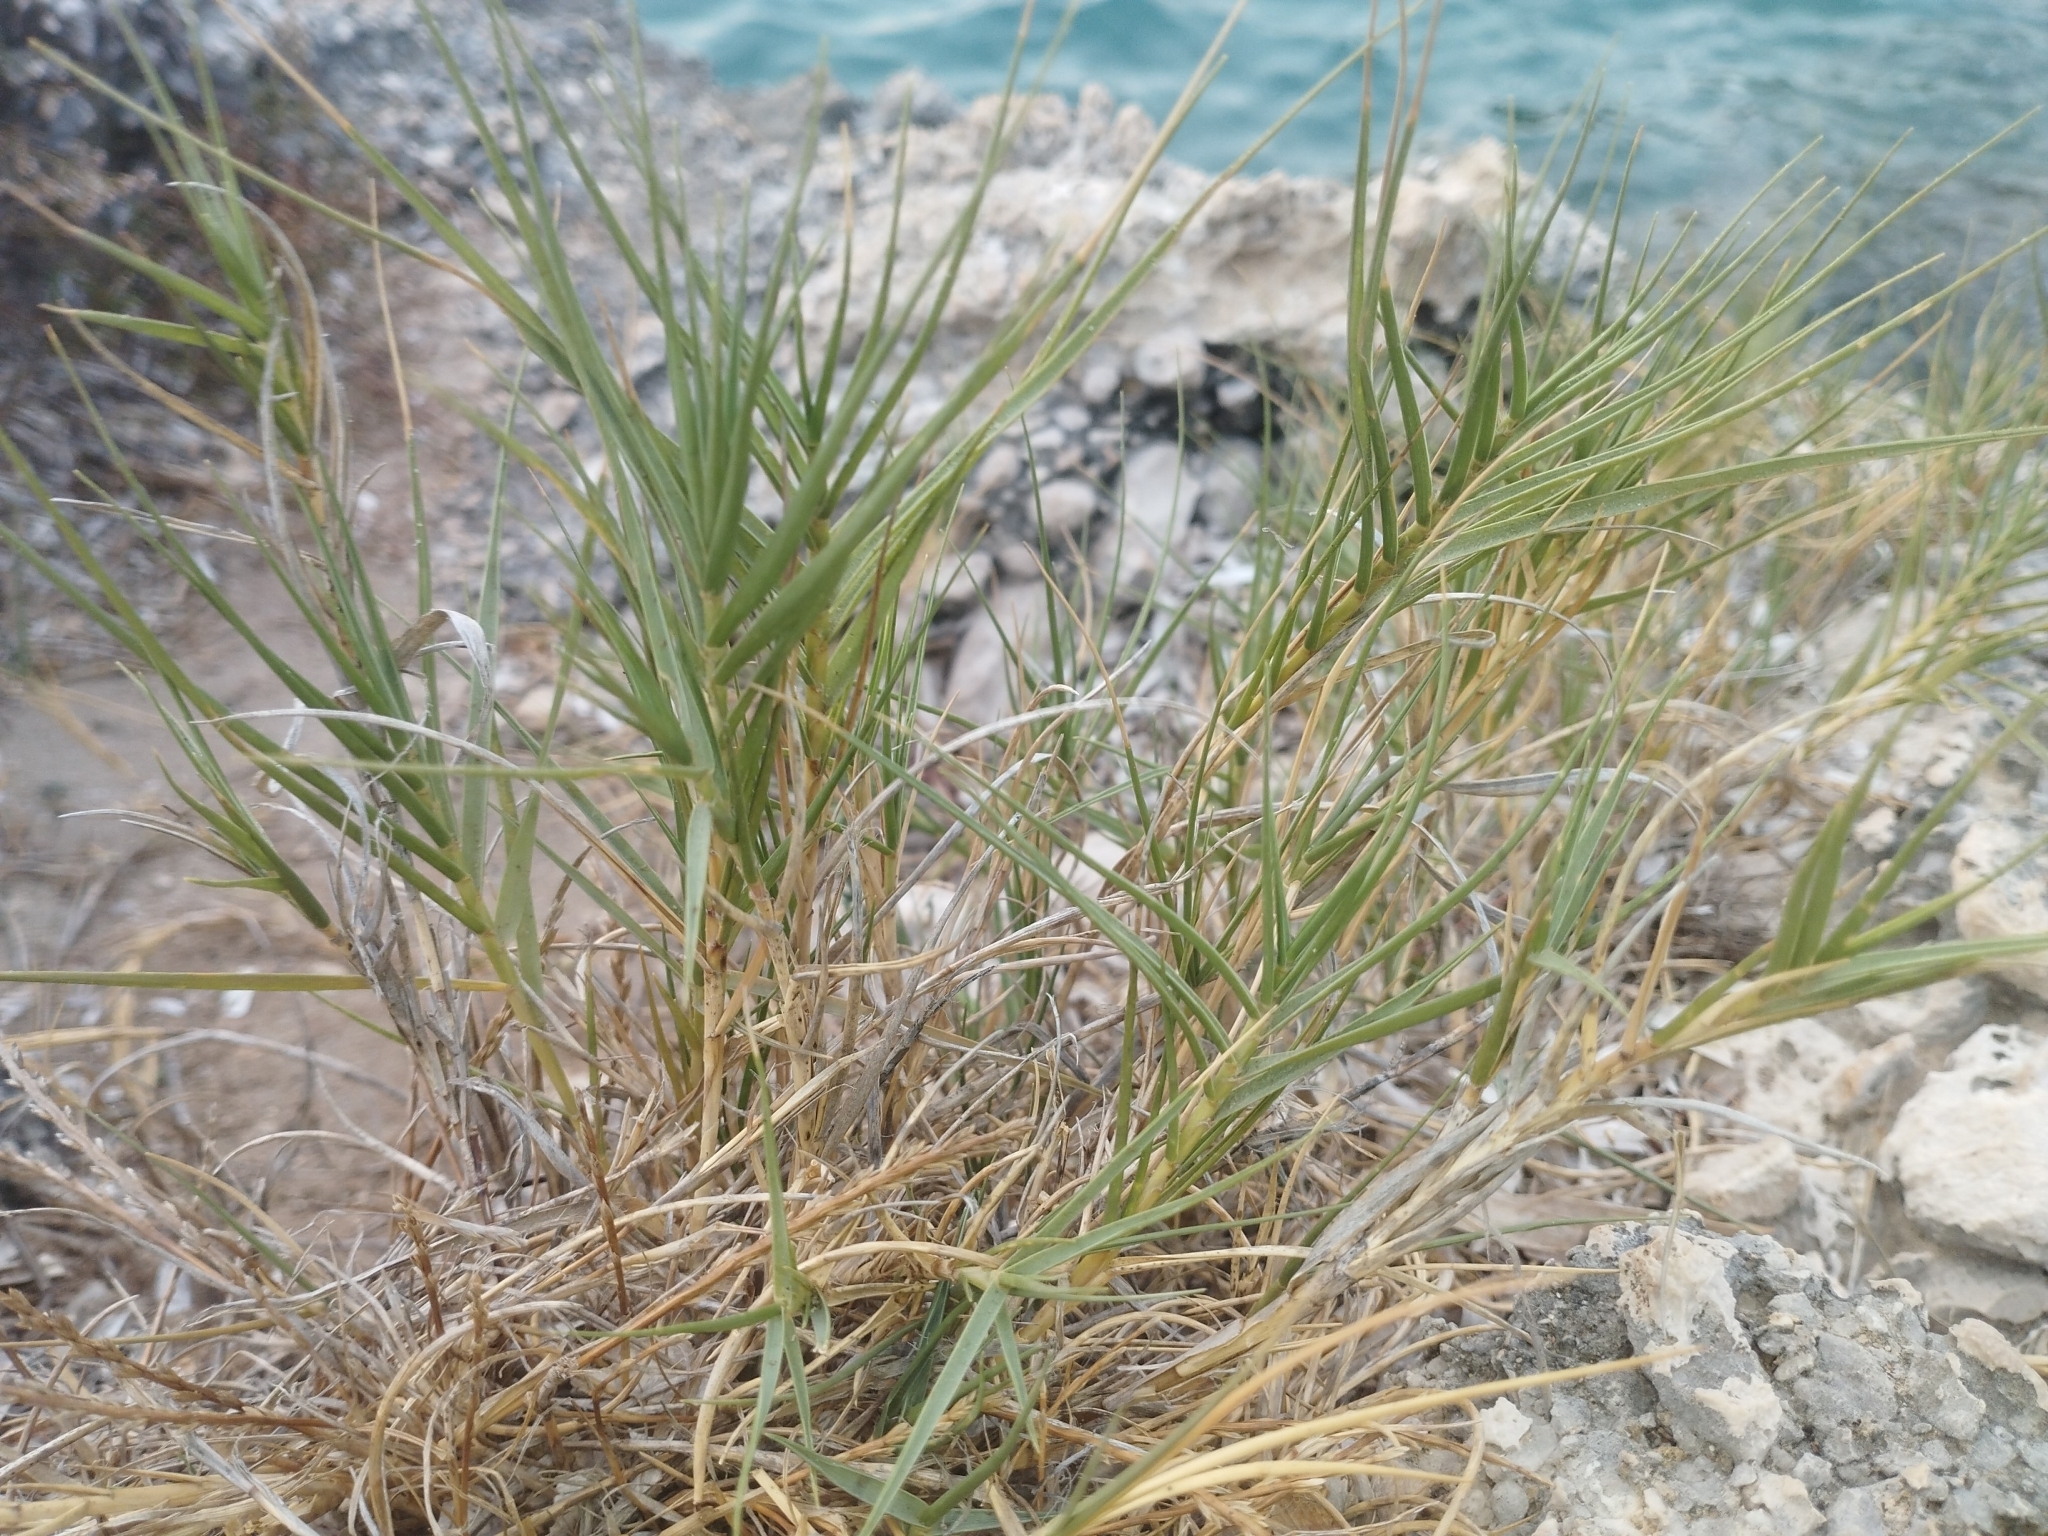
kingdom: Plantae
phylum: Tracheophyta
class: Liliopsida
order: Poales
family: Poaceae
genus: Sporobolus
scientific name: Sporobolus pungens
